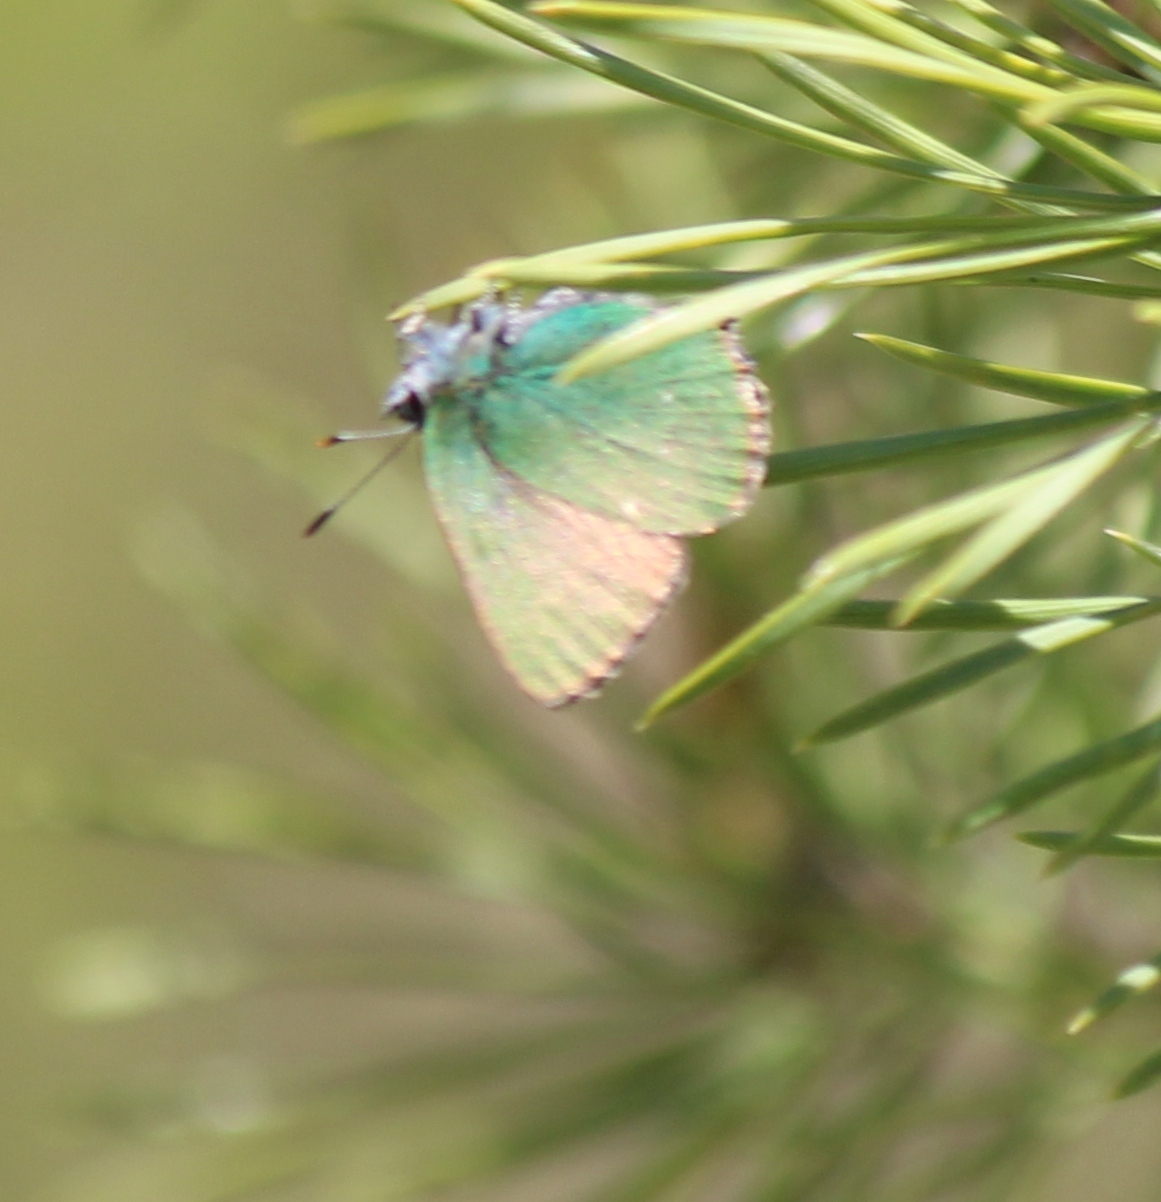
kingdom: Animalia
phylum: Arthropoda
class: Insecta
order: Lepidoptera
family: Lycaenidae
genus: Callophrys
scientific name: Callophrys rubi
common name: Green hairstreak
